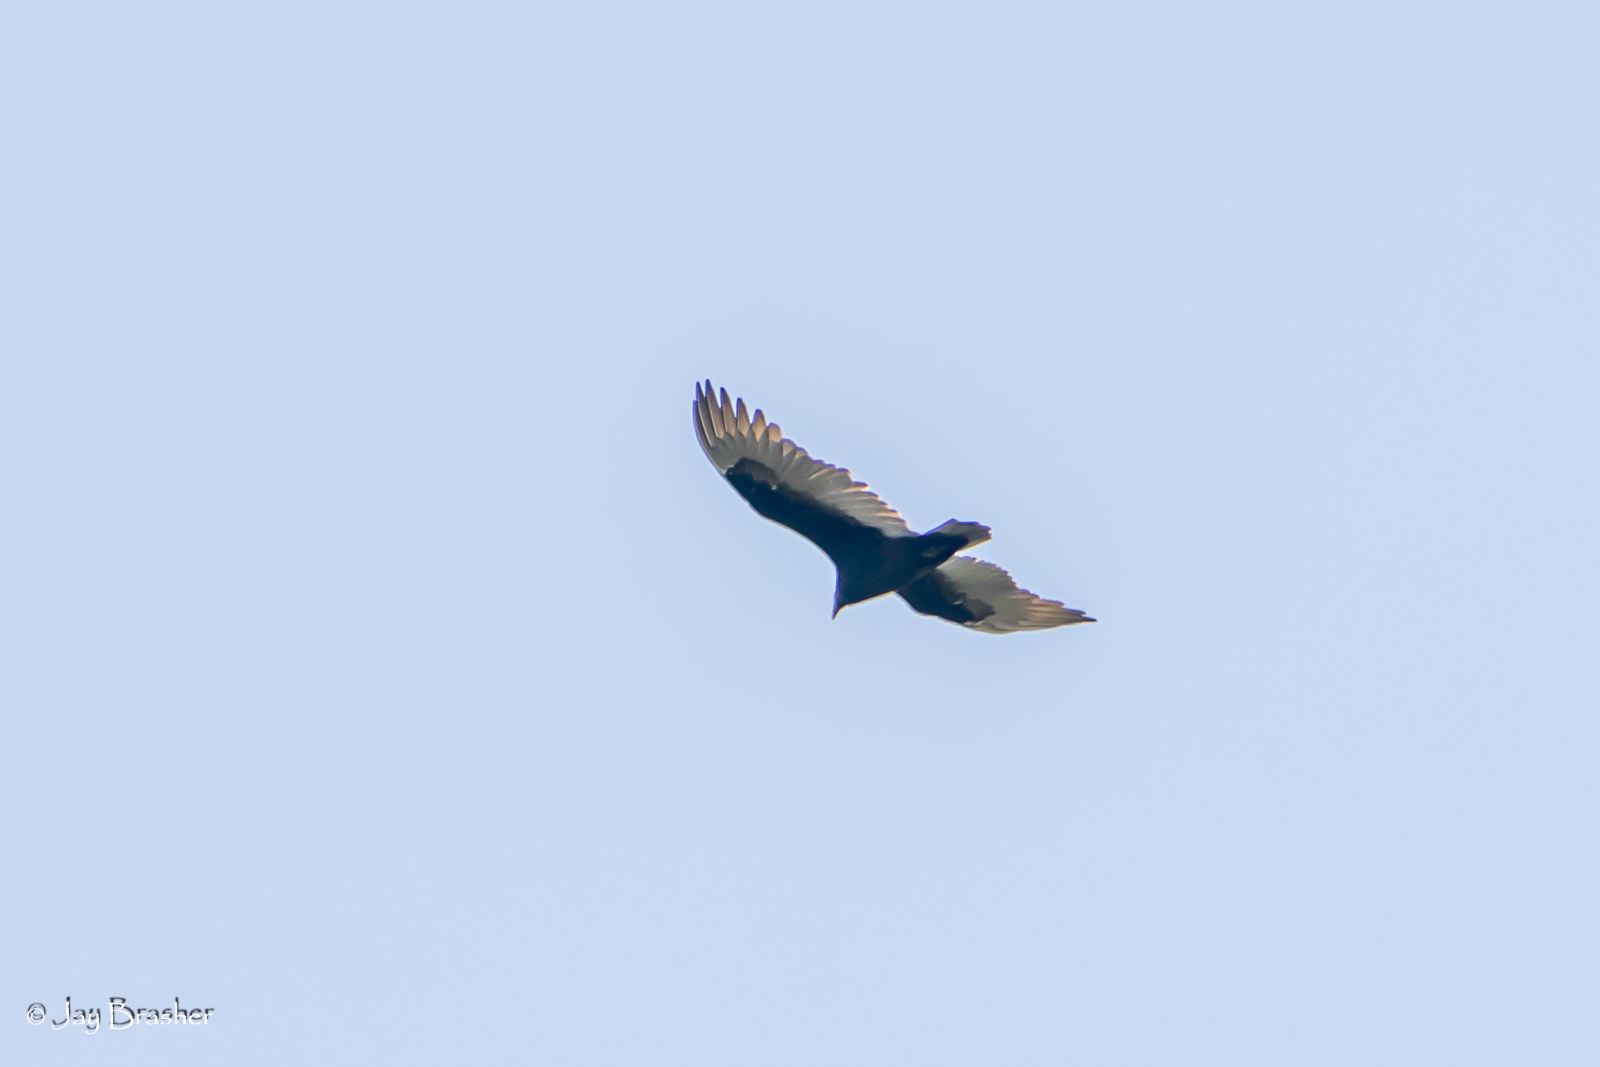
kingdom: Animalia
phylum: Chordata
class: Aves
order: Accipitriformes
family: Cathartidae
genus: Cathartes
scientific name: Cathartes aura
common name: Turkey vulture
